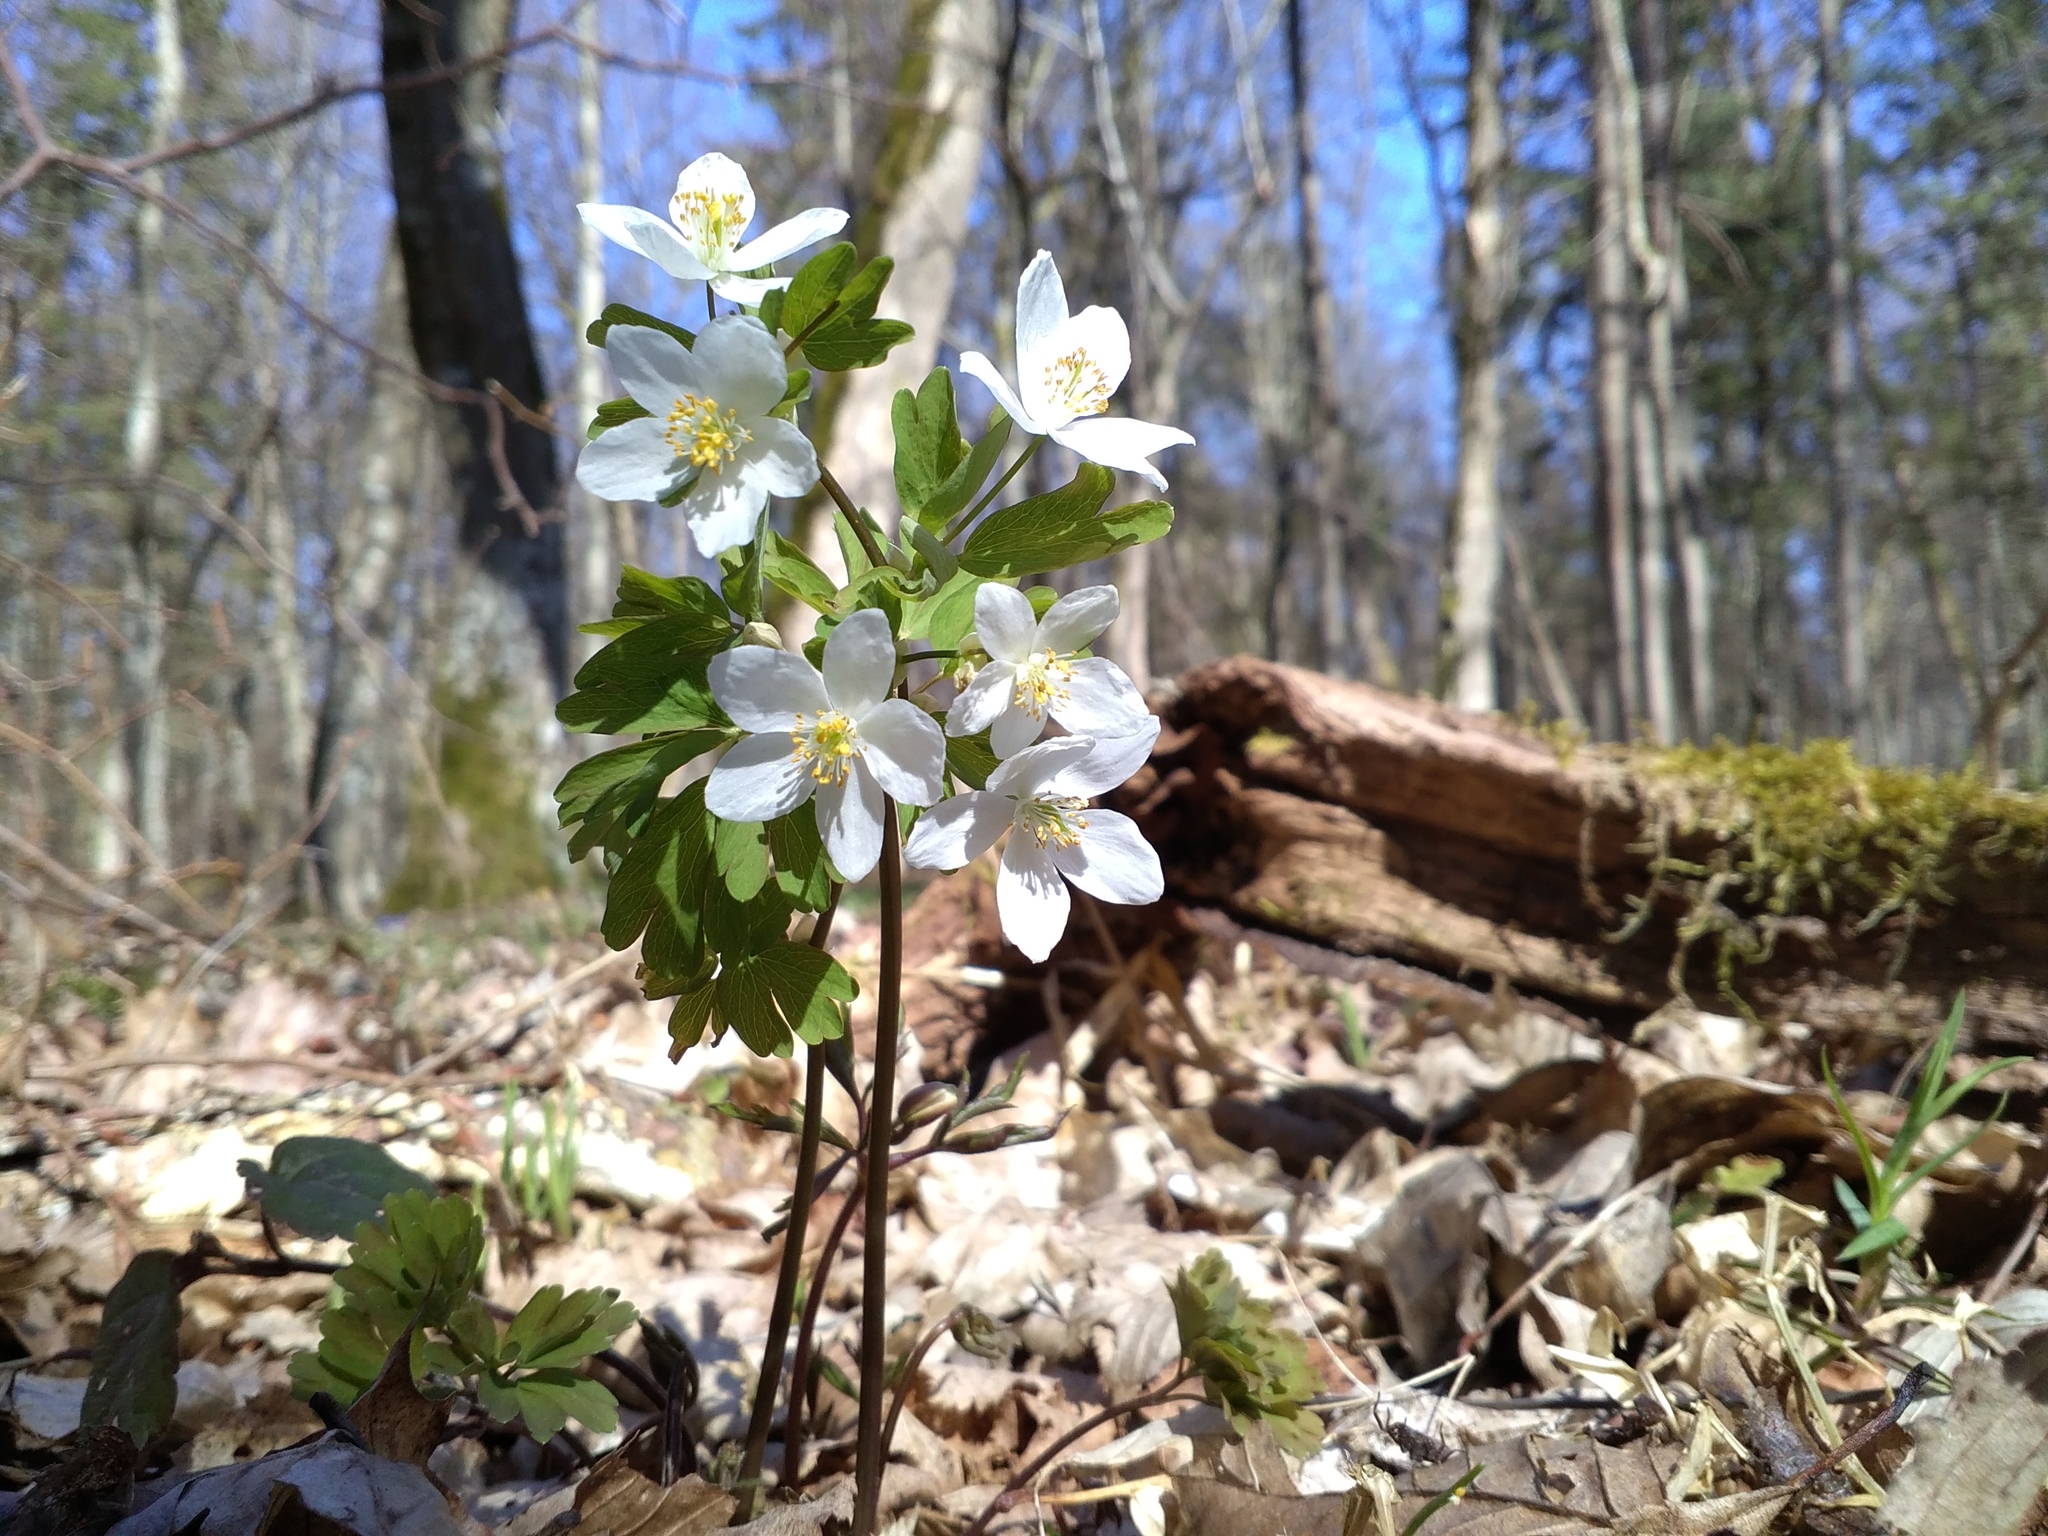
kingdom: Plantae
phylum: Tracheophyta
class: Magnoliopsida
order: Ranunculales
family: Ranunculaceae
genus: Isopyrum
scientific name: Isopyrum thalictroides
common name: Isopyrum
